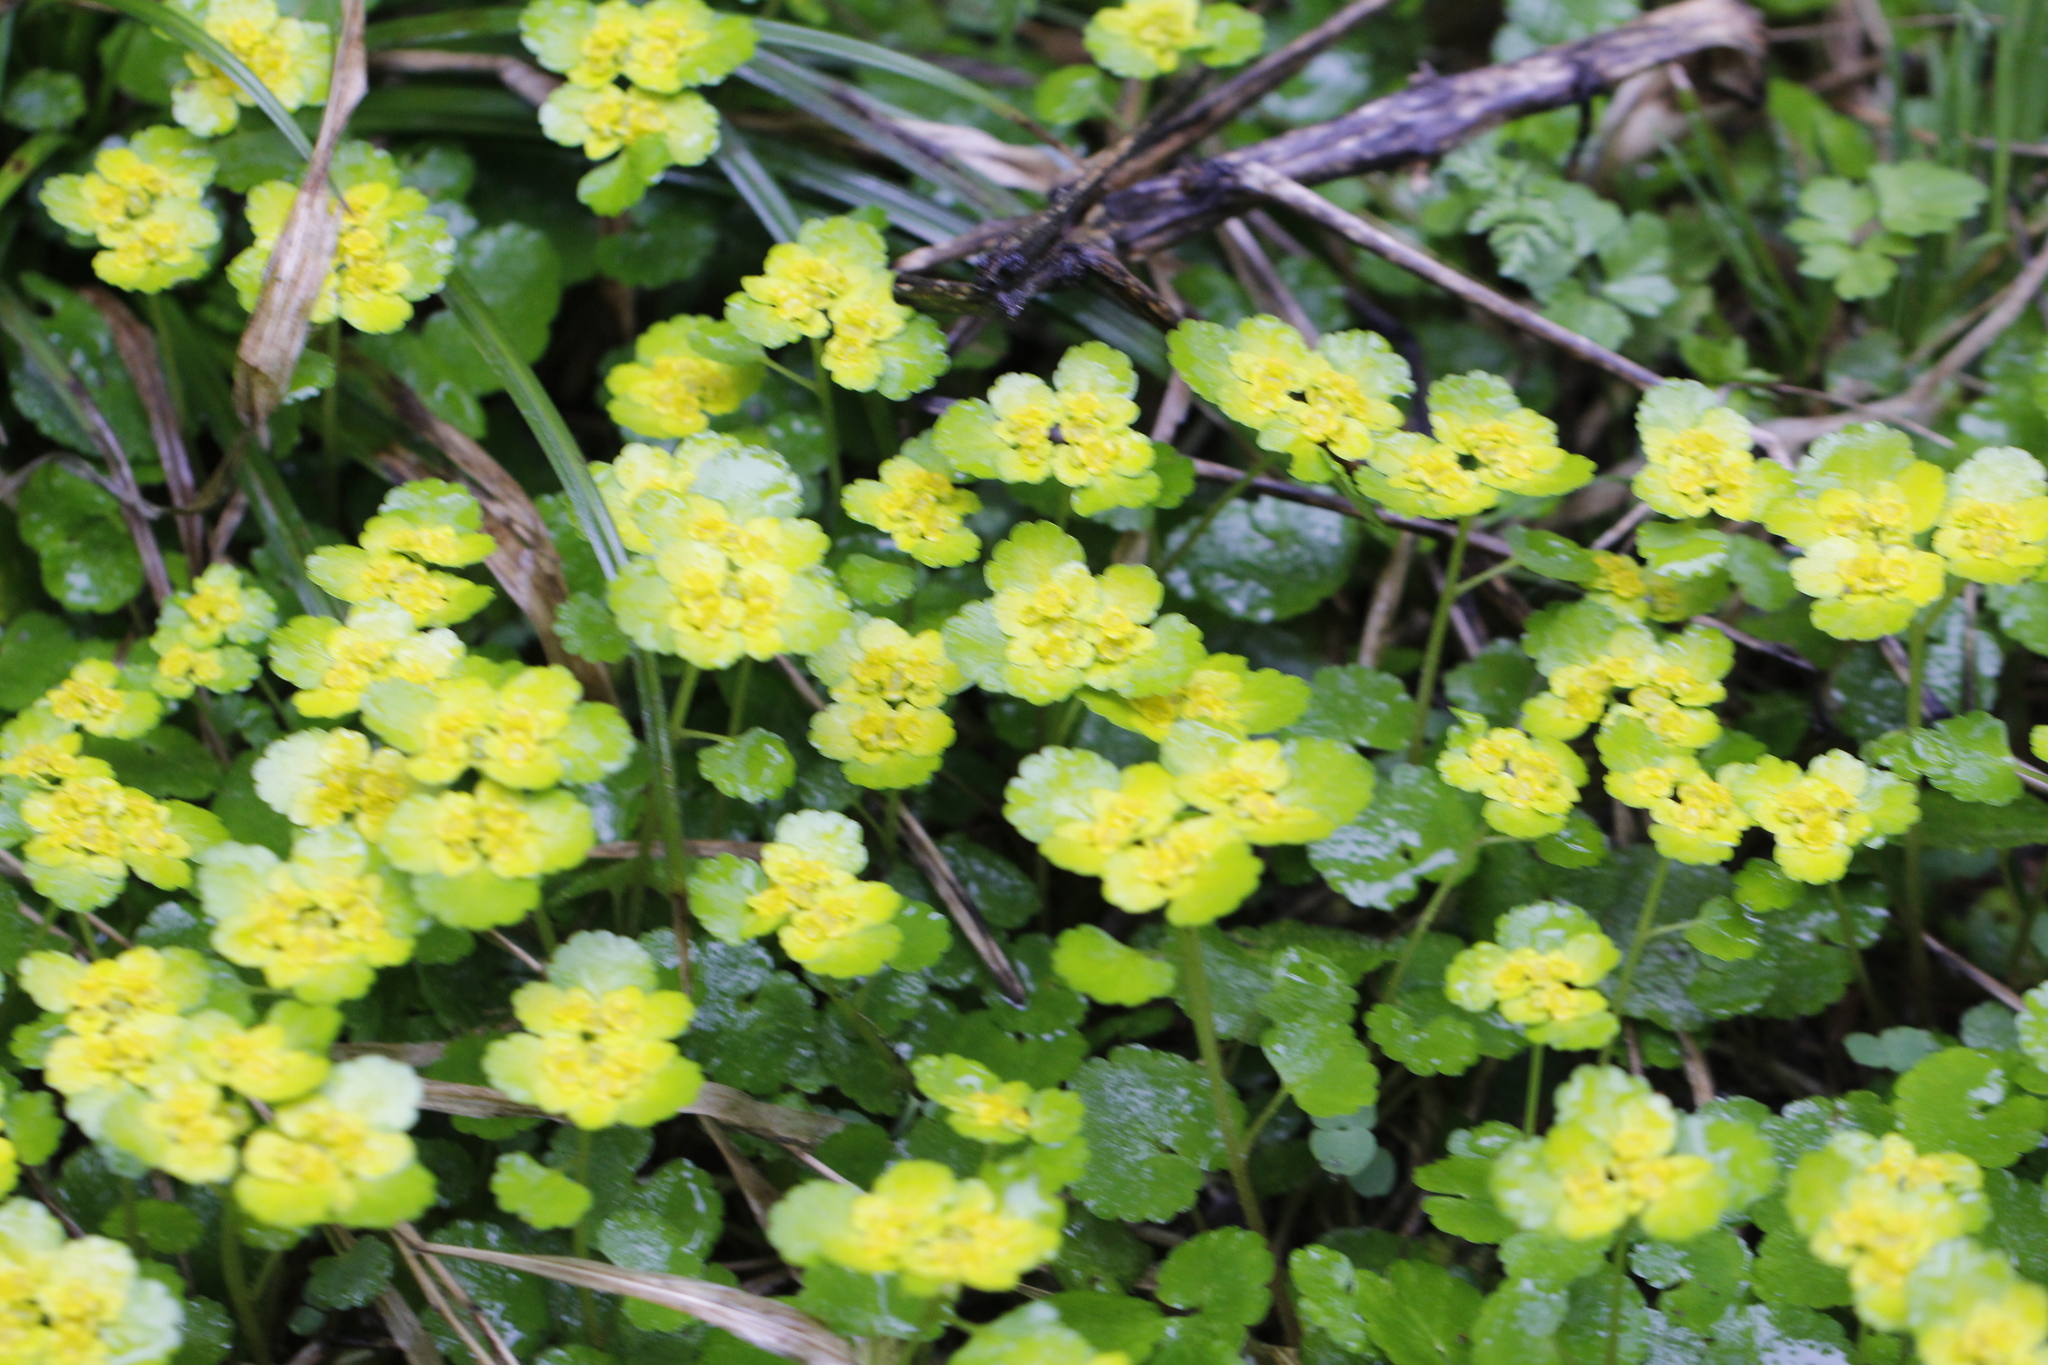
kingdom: Plantae
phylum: Tracheophyta
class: Magnoliopsida
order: Saxifragales
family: Saxifragaceae
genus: Chrysosplenium
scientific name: Chrysosplenium alternifolium
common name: Alternate-leaved golden-saxifrage
